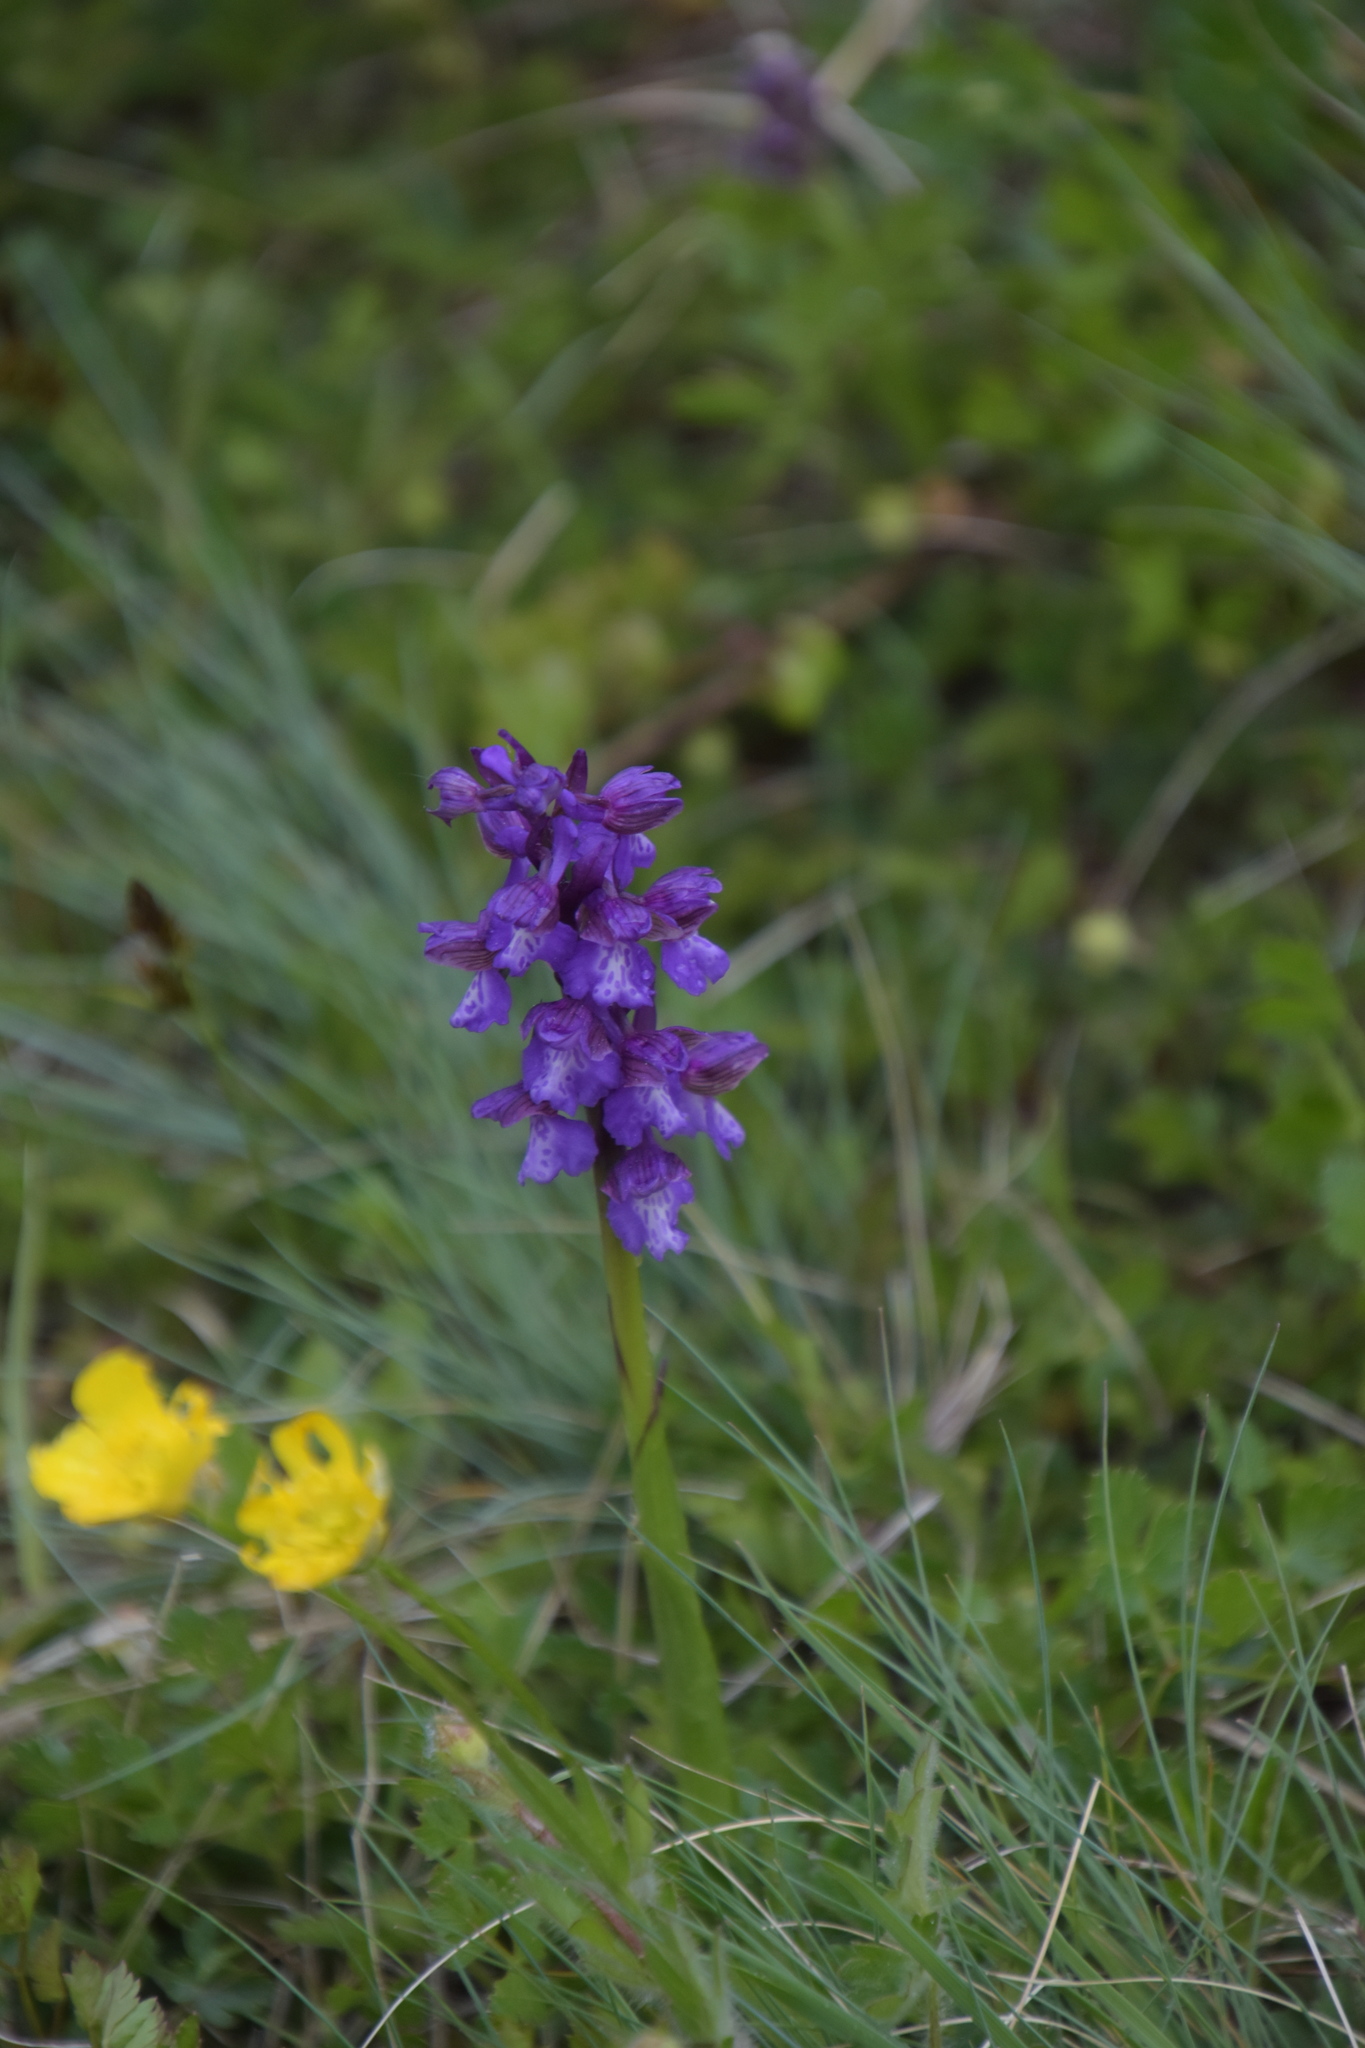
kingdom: Plantae
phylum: Tracheophyta
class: Liliopsida
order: Asparagales
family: Orchidaceae
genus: Anacamptis
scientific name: Anacamptis morio
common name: Green-winged orchid
